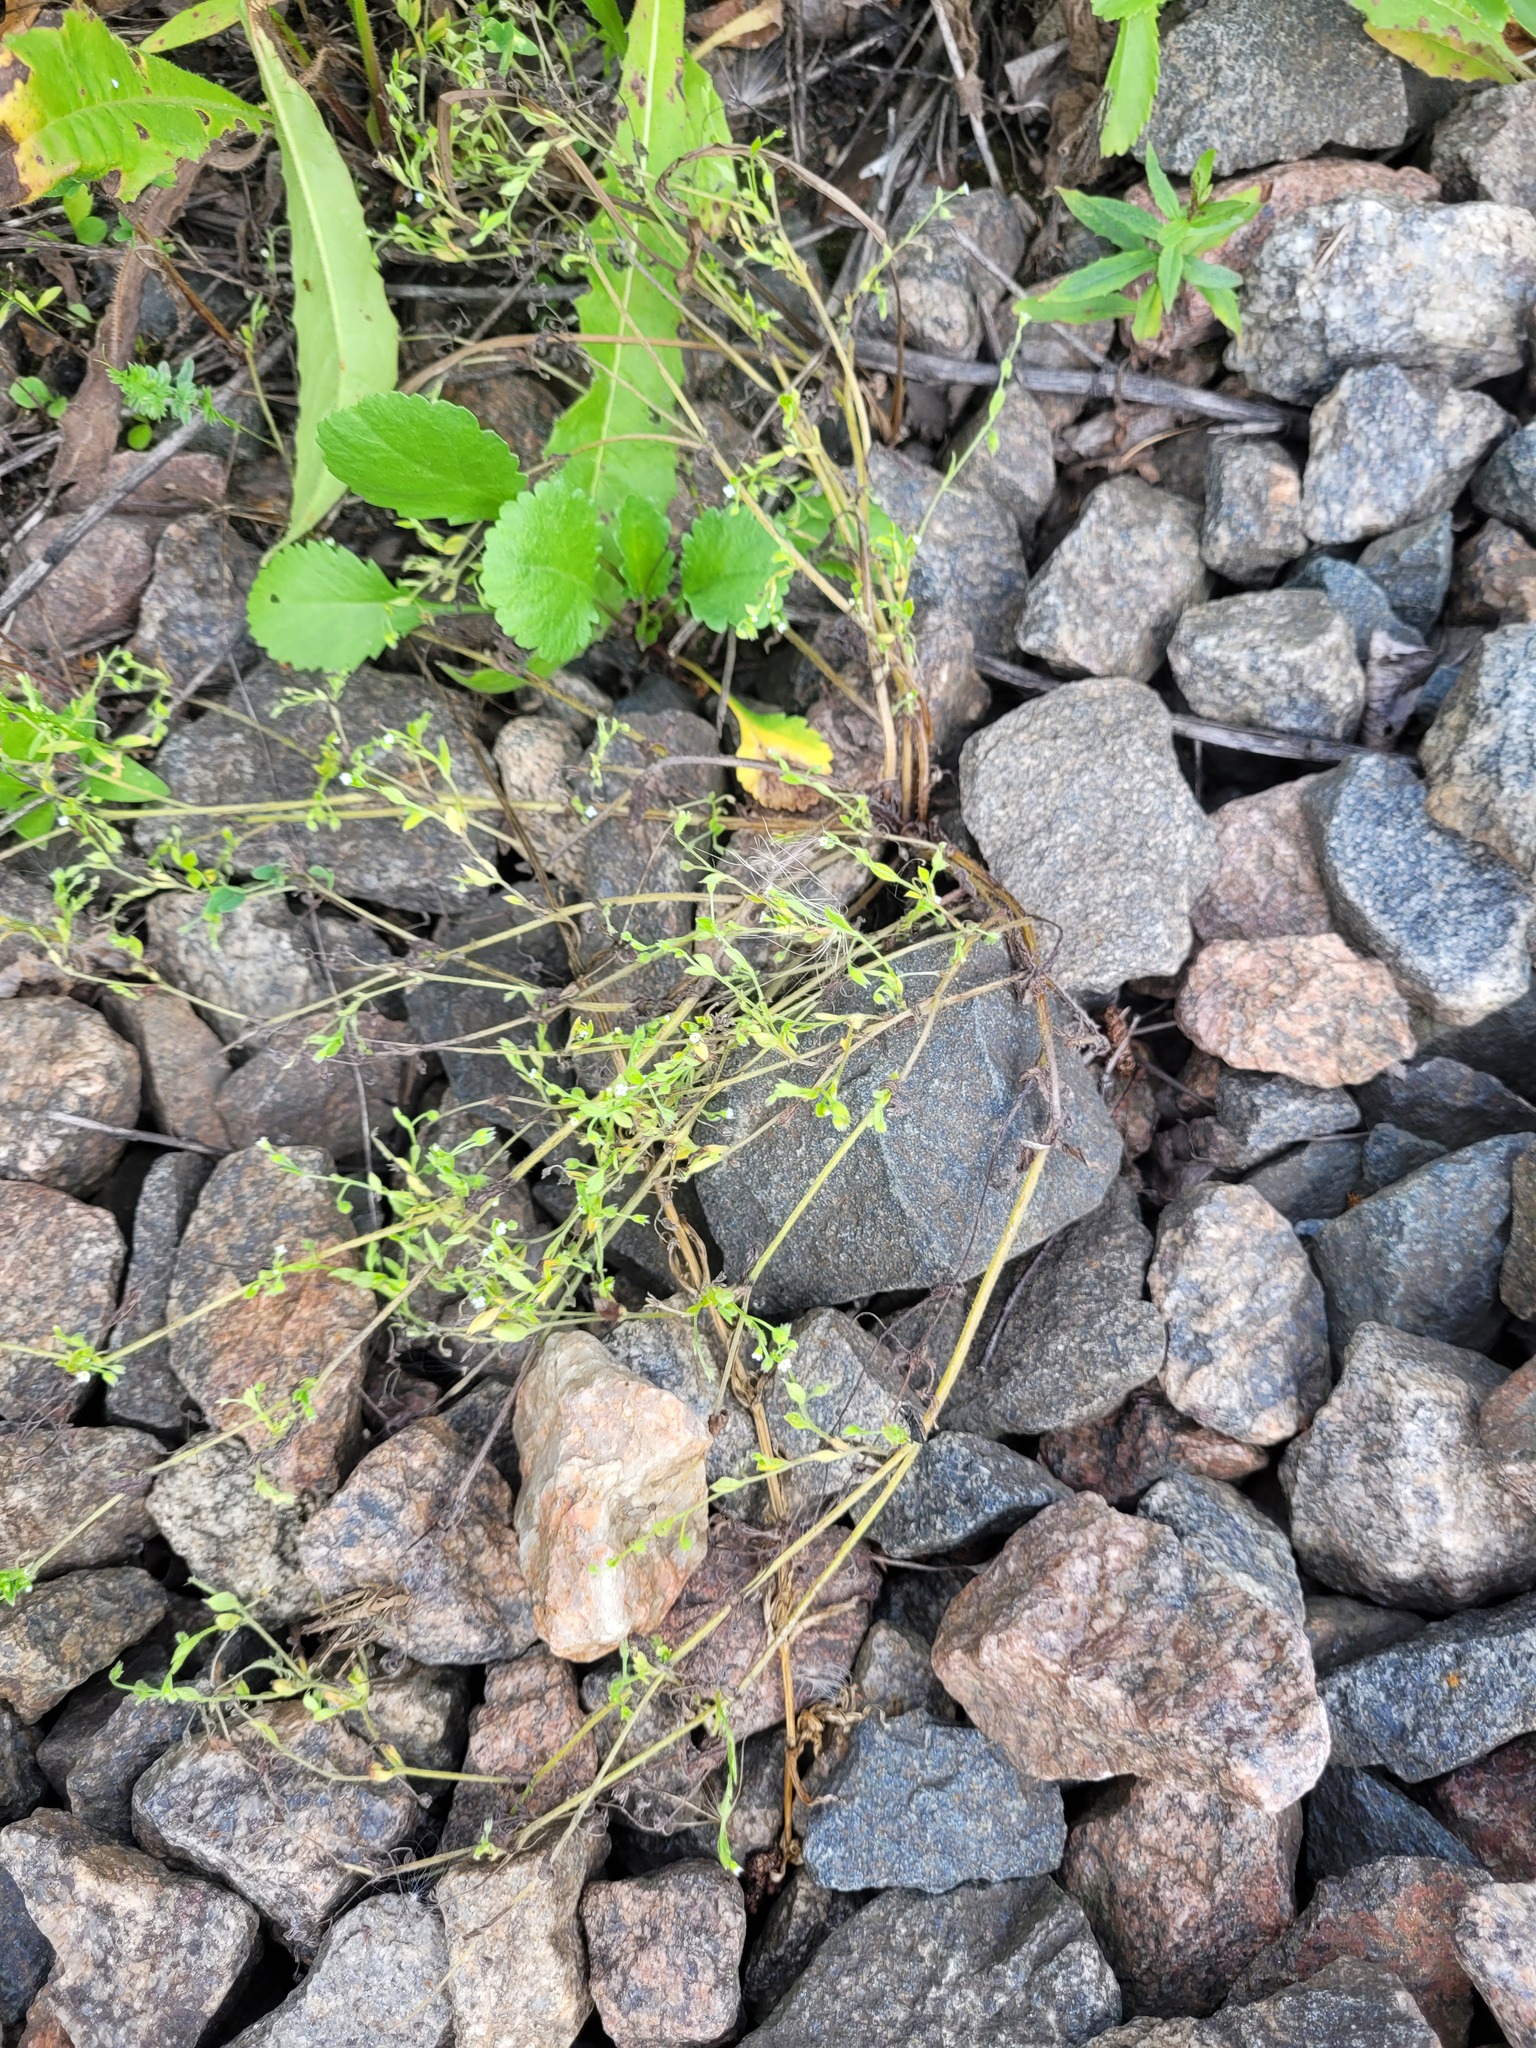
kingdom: Plantae
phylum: Tracheophyta
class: Magnoliopsida
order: Boraginales
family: Boraginaceae
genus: Myosotis
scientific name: Myosotis sparsiflora
